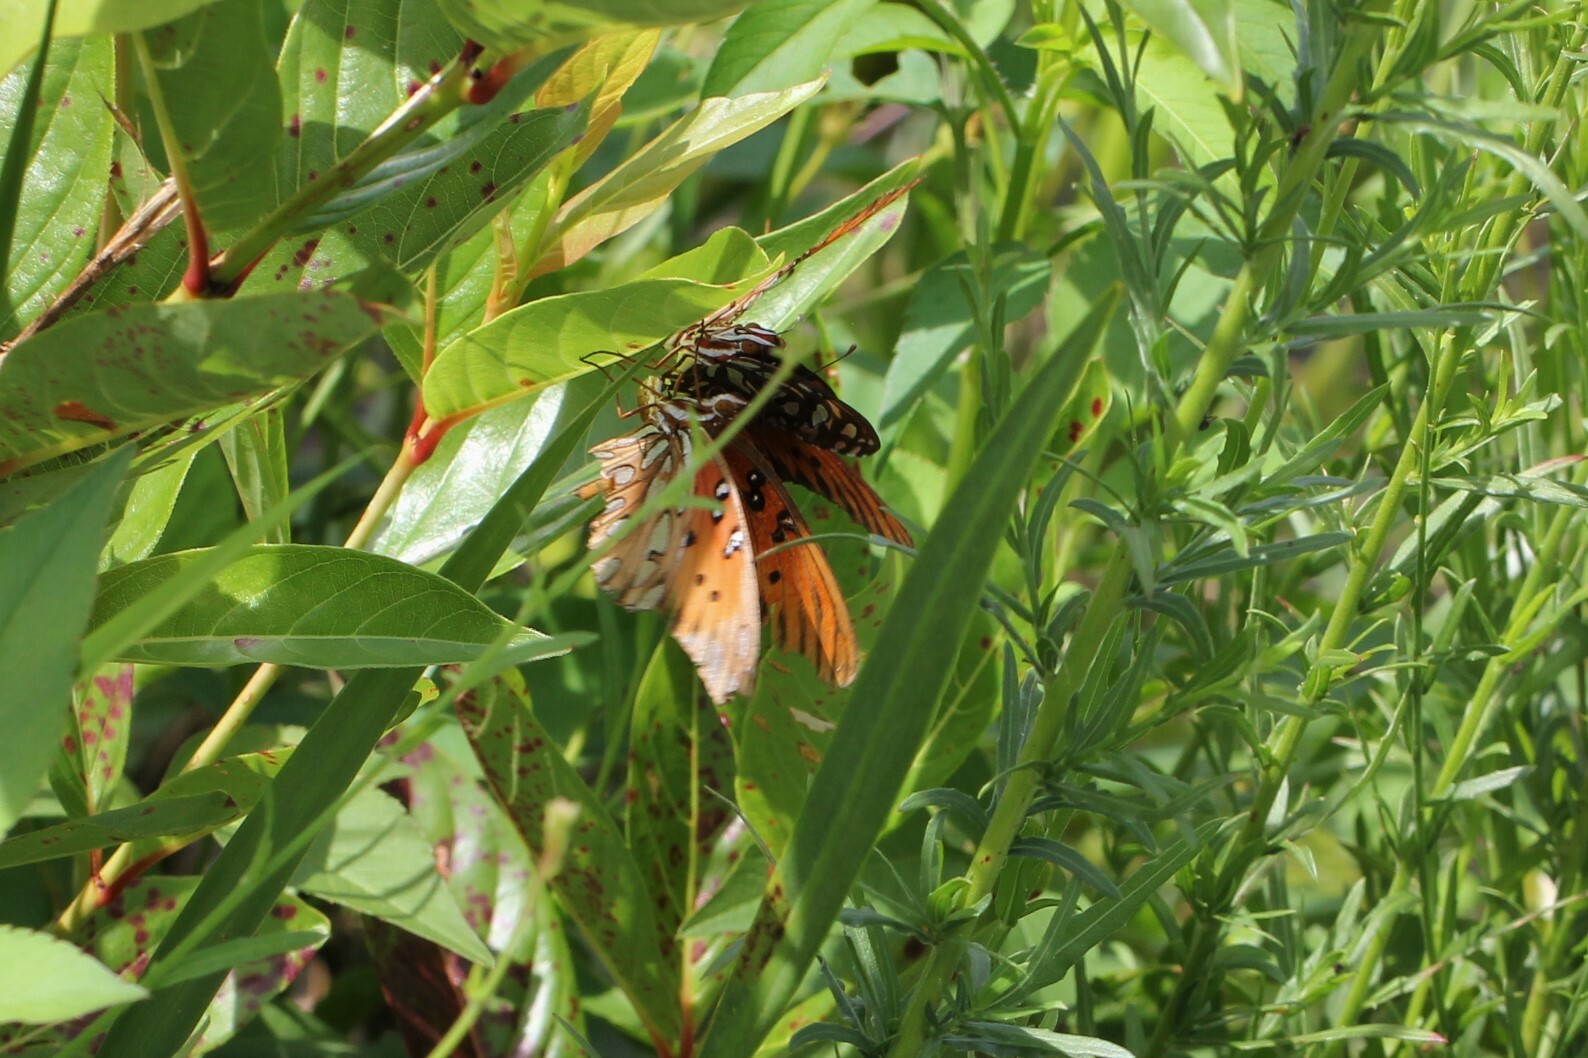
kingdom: Animalia
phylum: Arthropoda
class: Insecta
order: Lepidoptera
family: Nymphalidae
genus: Dione
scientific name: Dione vanillae
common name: Gulf fritillary
